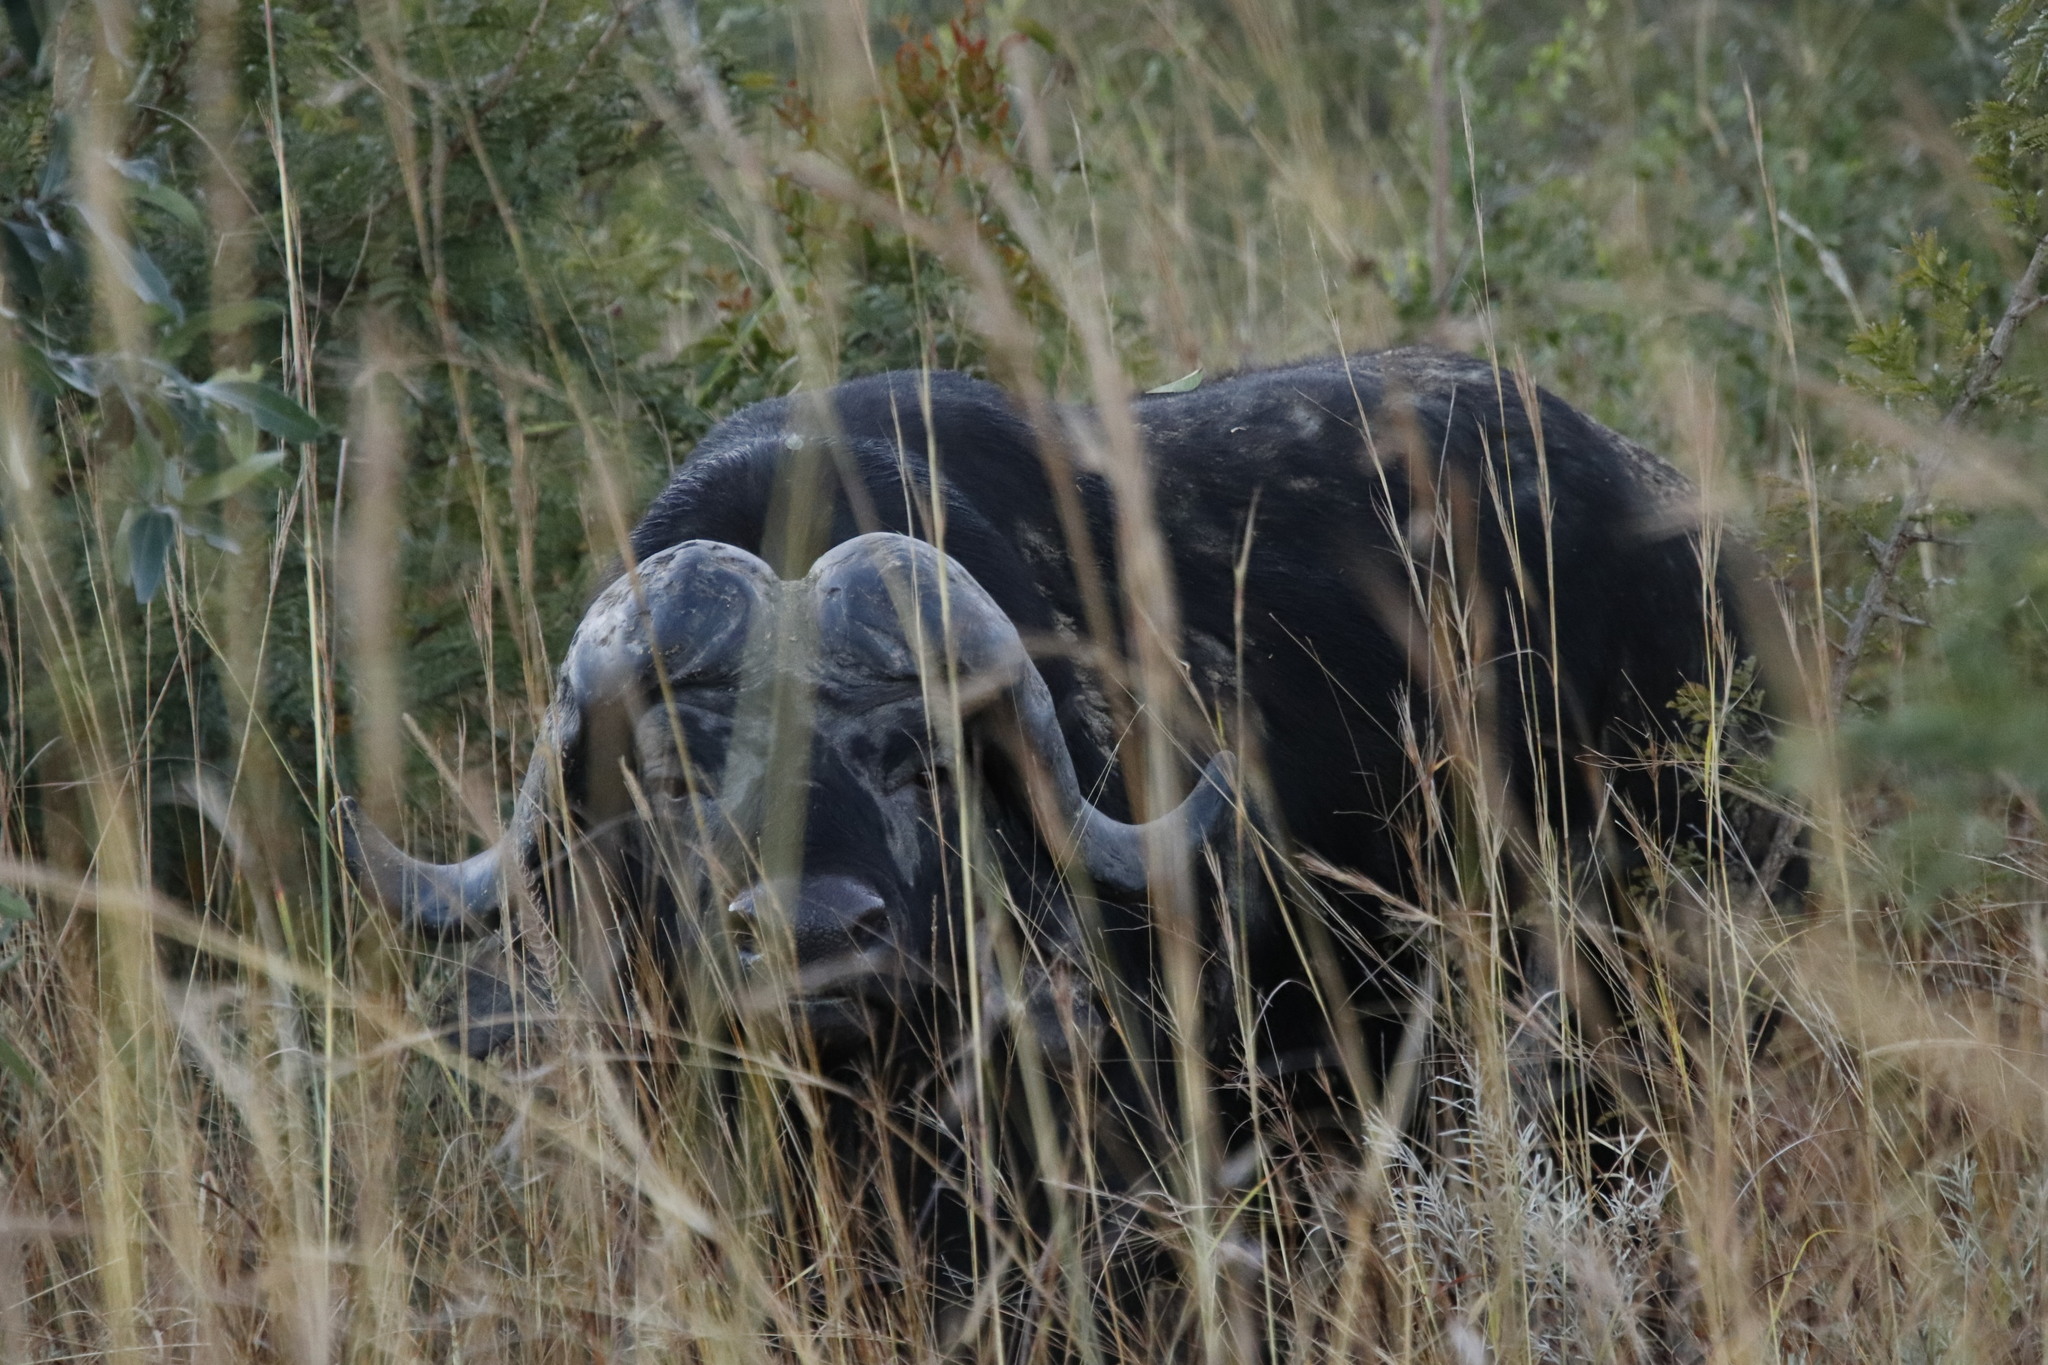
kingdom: Animalia
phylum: Chordata
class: Mammalia
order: Artiodactyla
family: Bovidae
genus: Syncerus
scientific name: Syncerus caffer
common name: African buffalo
